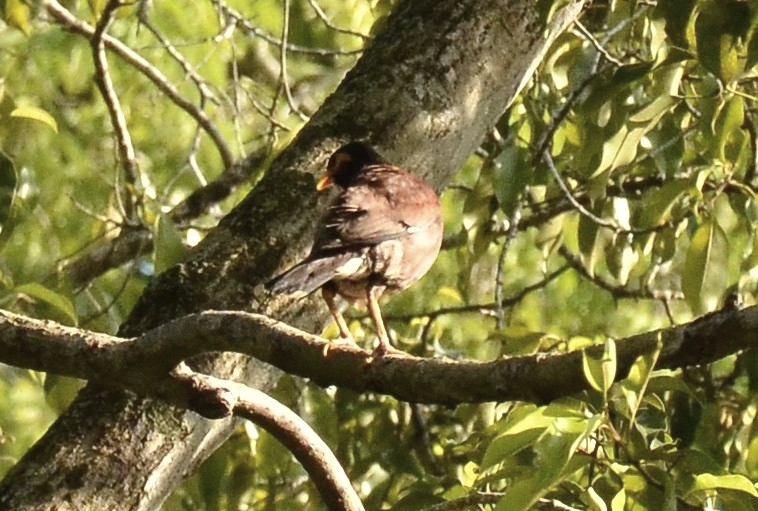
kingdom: Animalia
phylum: Chordata
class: Aves
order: Passeriformes
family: Sturnidae
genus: Acridotheres
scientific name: Acridotheres tristis
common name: Common myna
